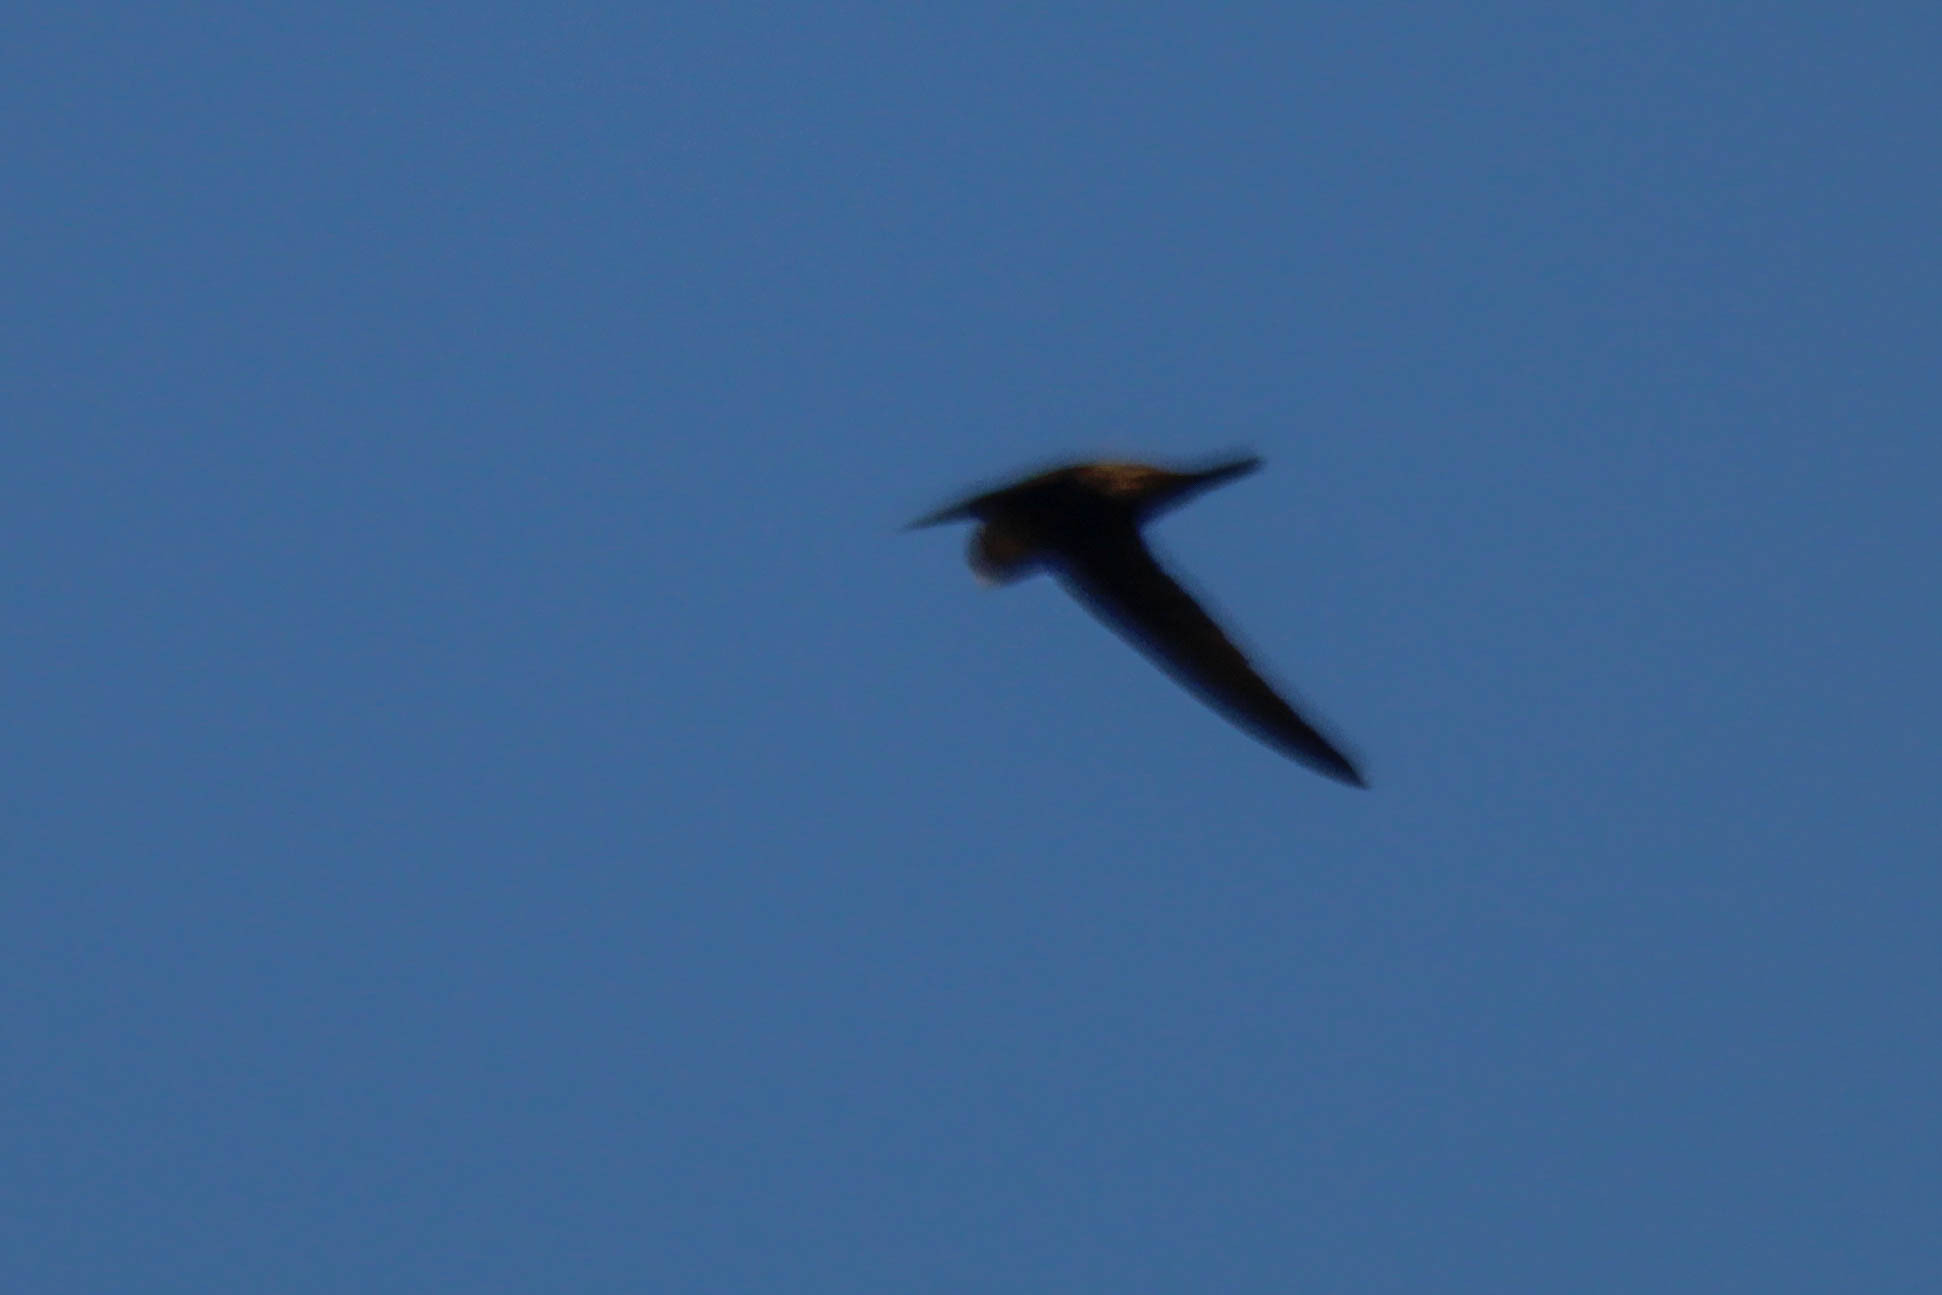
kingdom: Animalia
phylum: Chordata
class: Aves
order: Apodiformes
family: Apodidae
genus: Apus
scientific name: Apus apus
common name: Common swift
